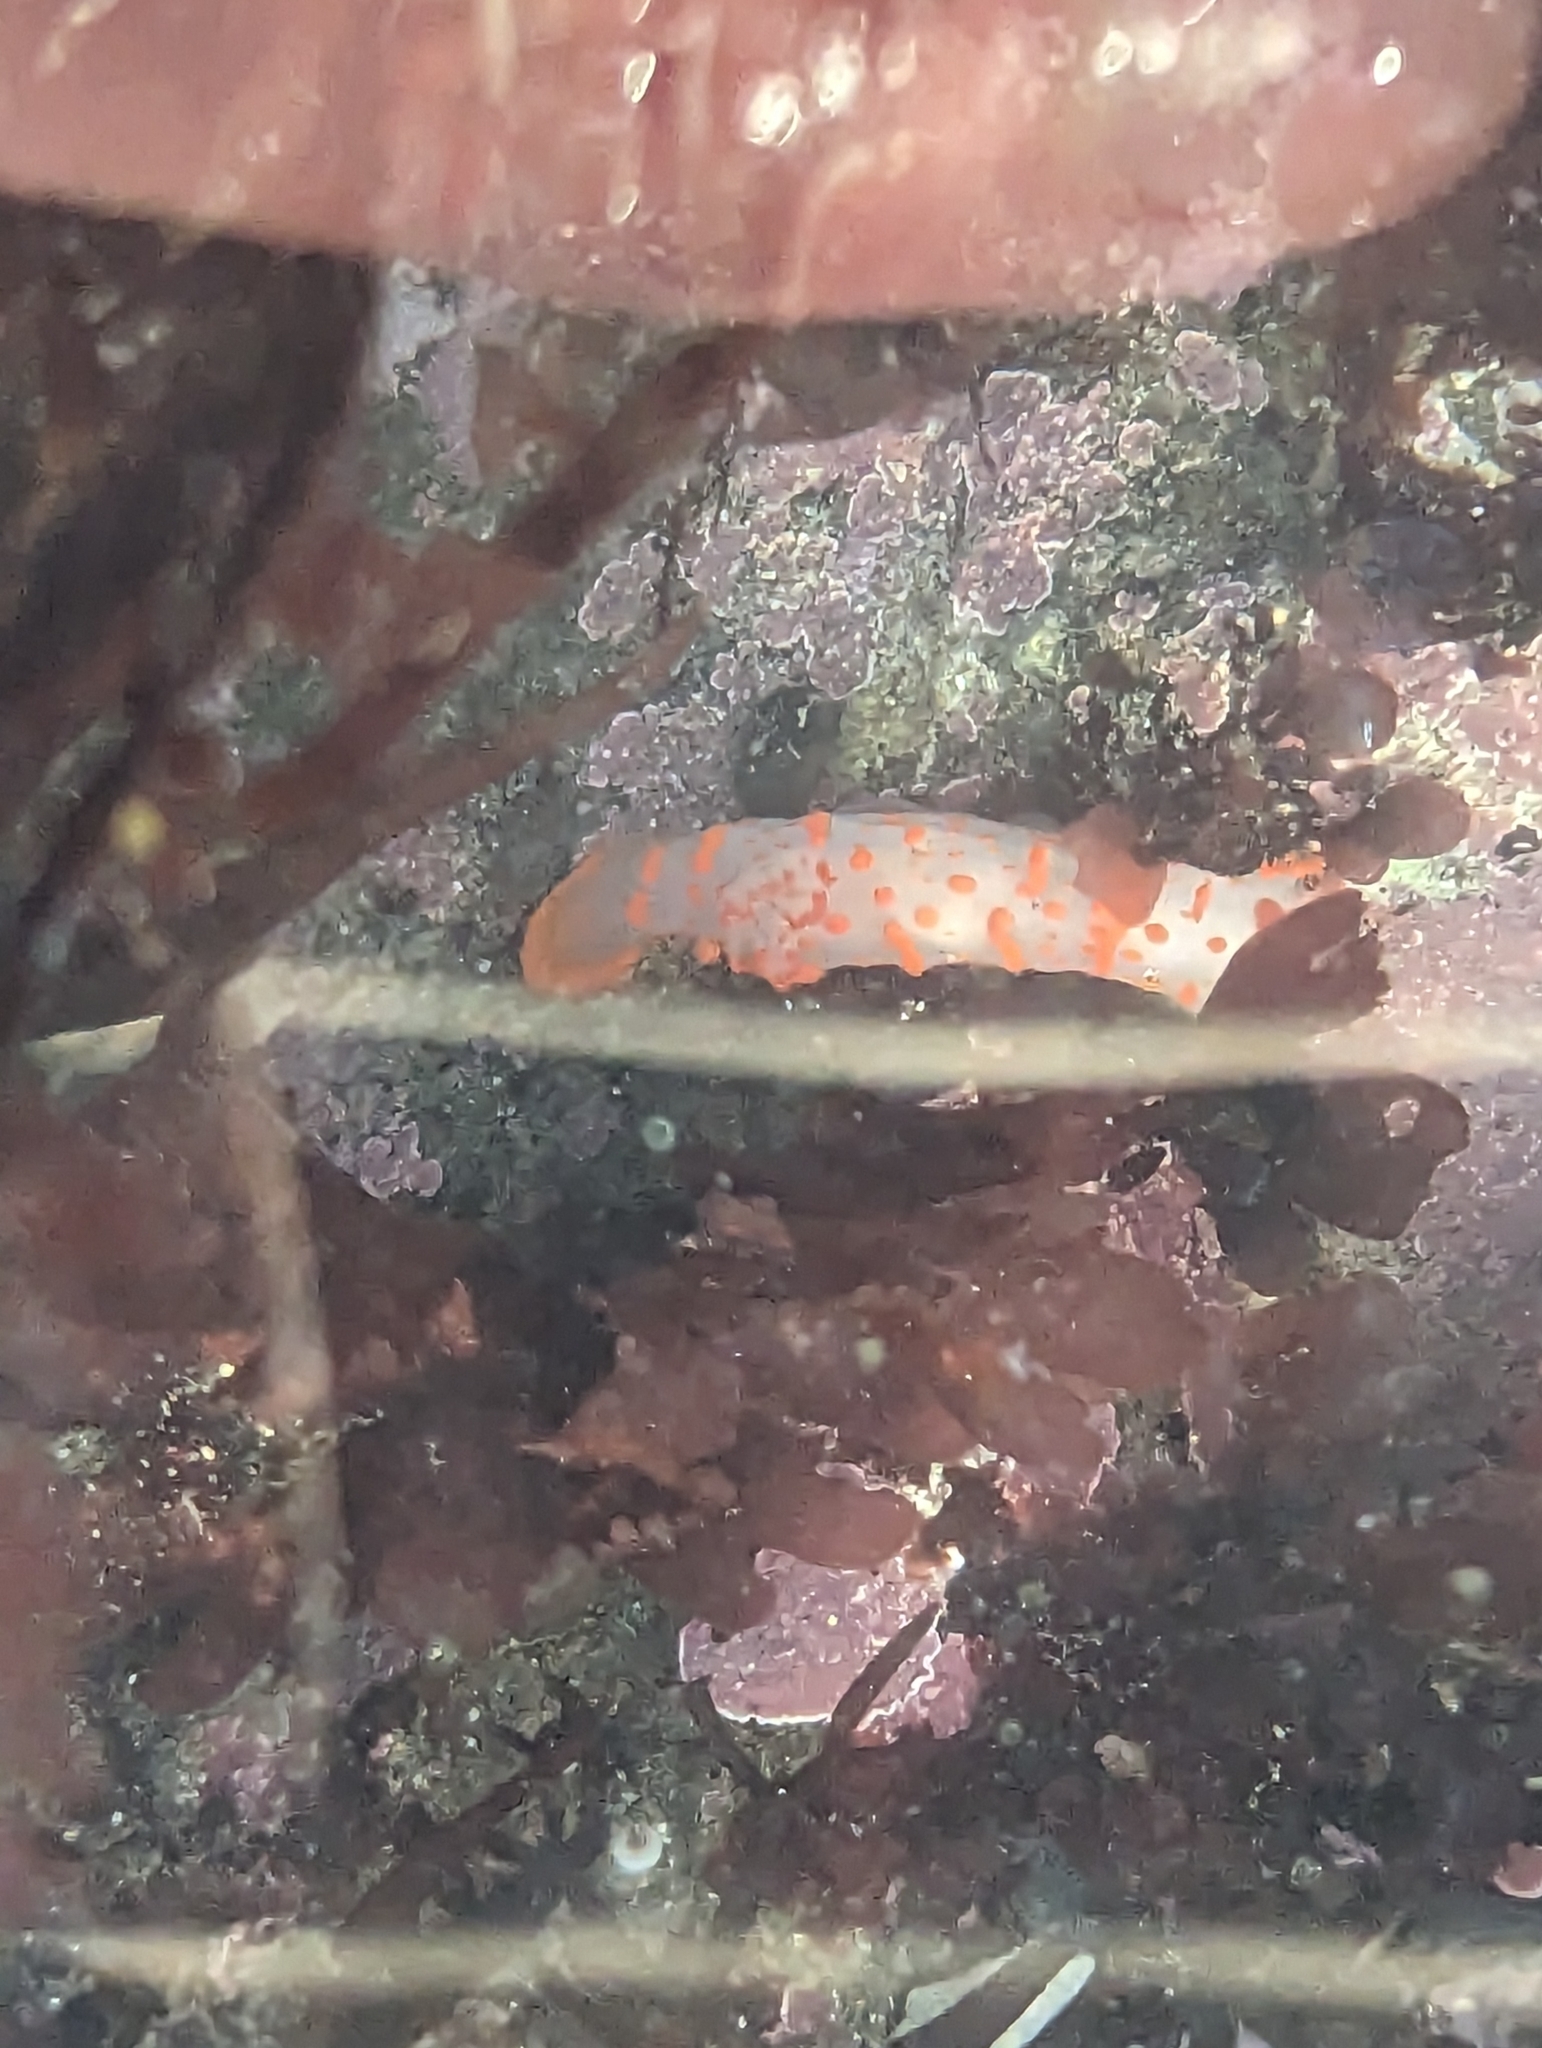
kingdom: Animalia
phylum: Mollusca
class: Gastropoda
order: Nudibranchia
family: Polyceridae
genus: Triopha
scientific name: Triopha catalinae
